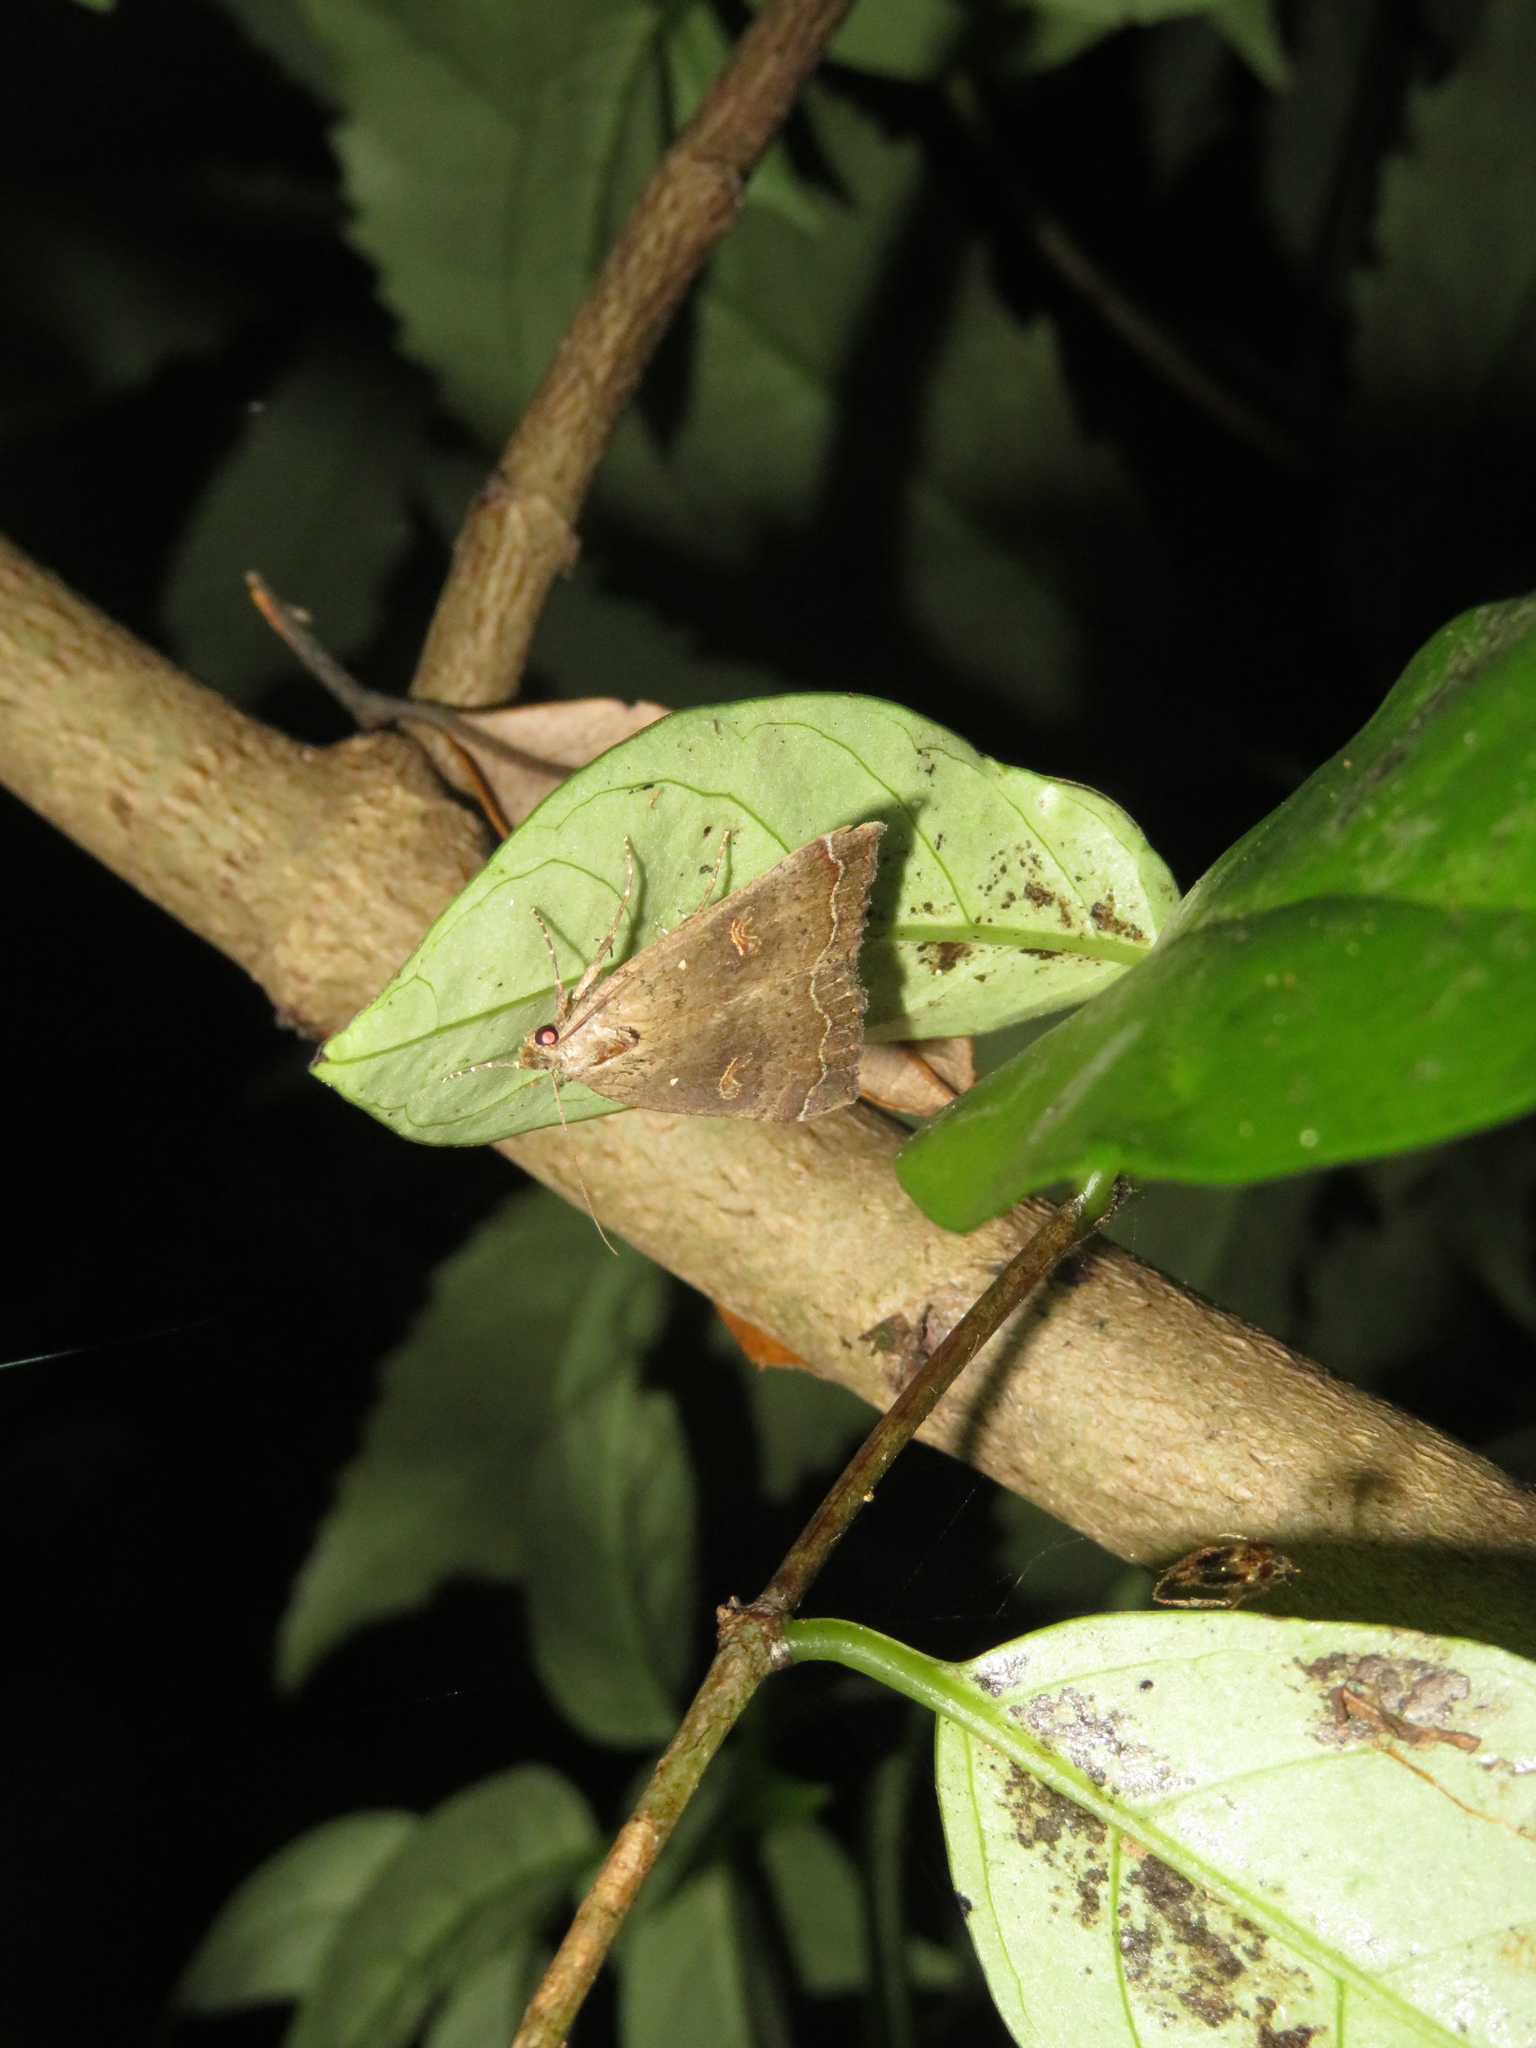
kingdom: Animalia
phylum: Arthropoda
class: Insecta
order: Lepidoptera
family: Erebidae
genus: Rhapsa
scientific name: Rhapsa scotosialis
